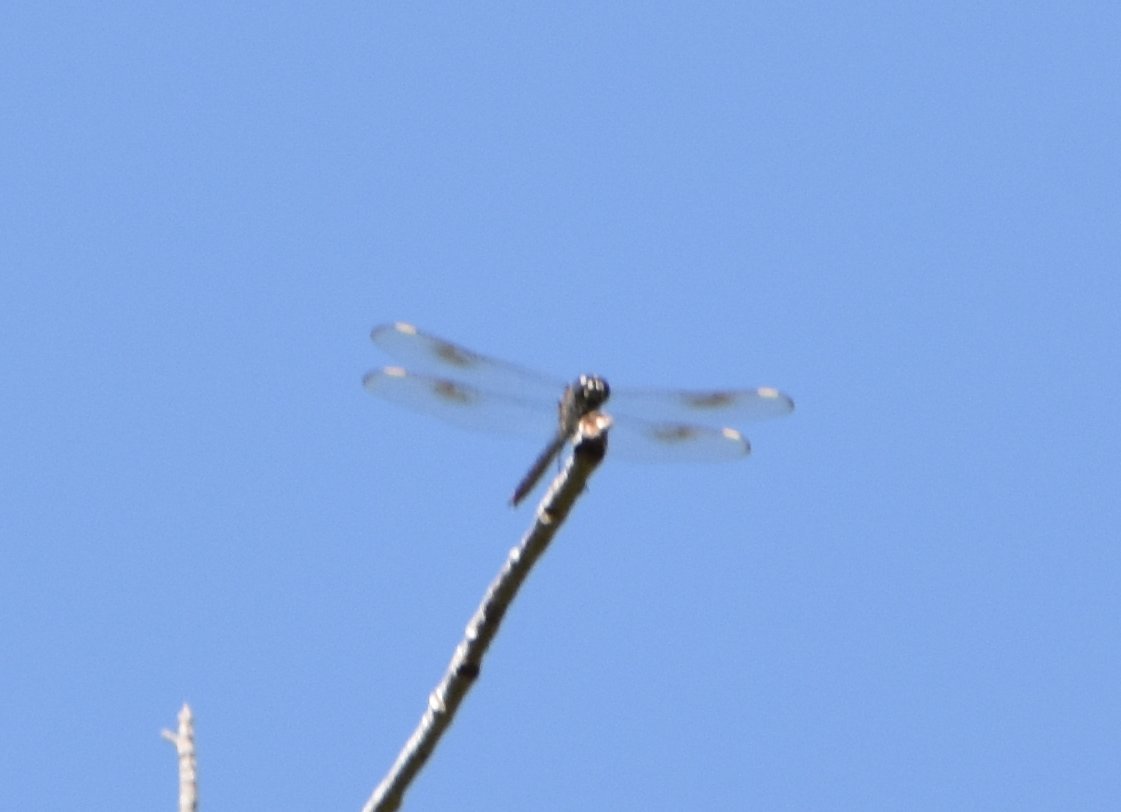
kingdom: Animalia
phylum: Arthropoda
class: Insecta
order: Odonata
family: Libellulidae
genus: Brachymesia
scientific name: Brachymesia gravida
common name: Four-spotted pennant
